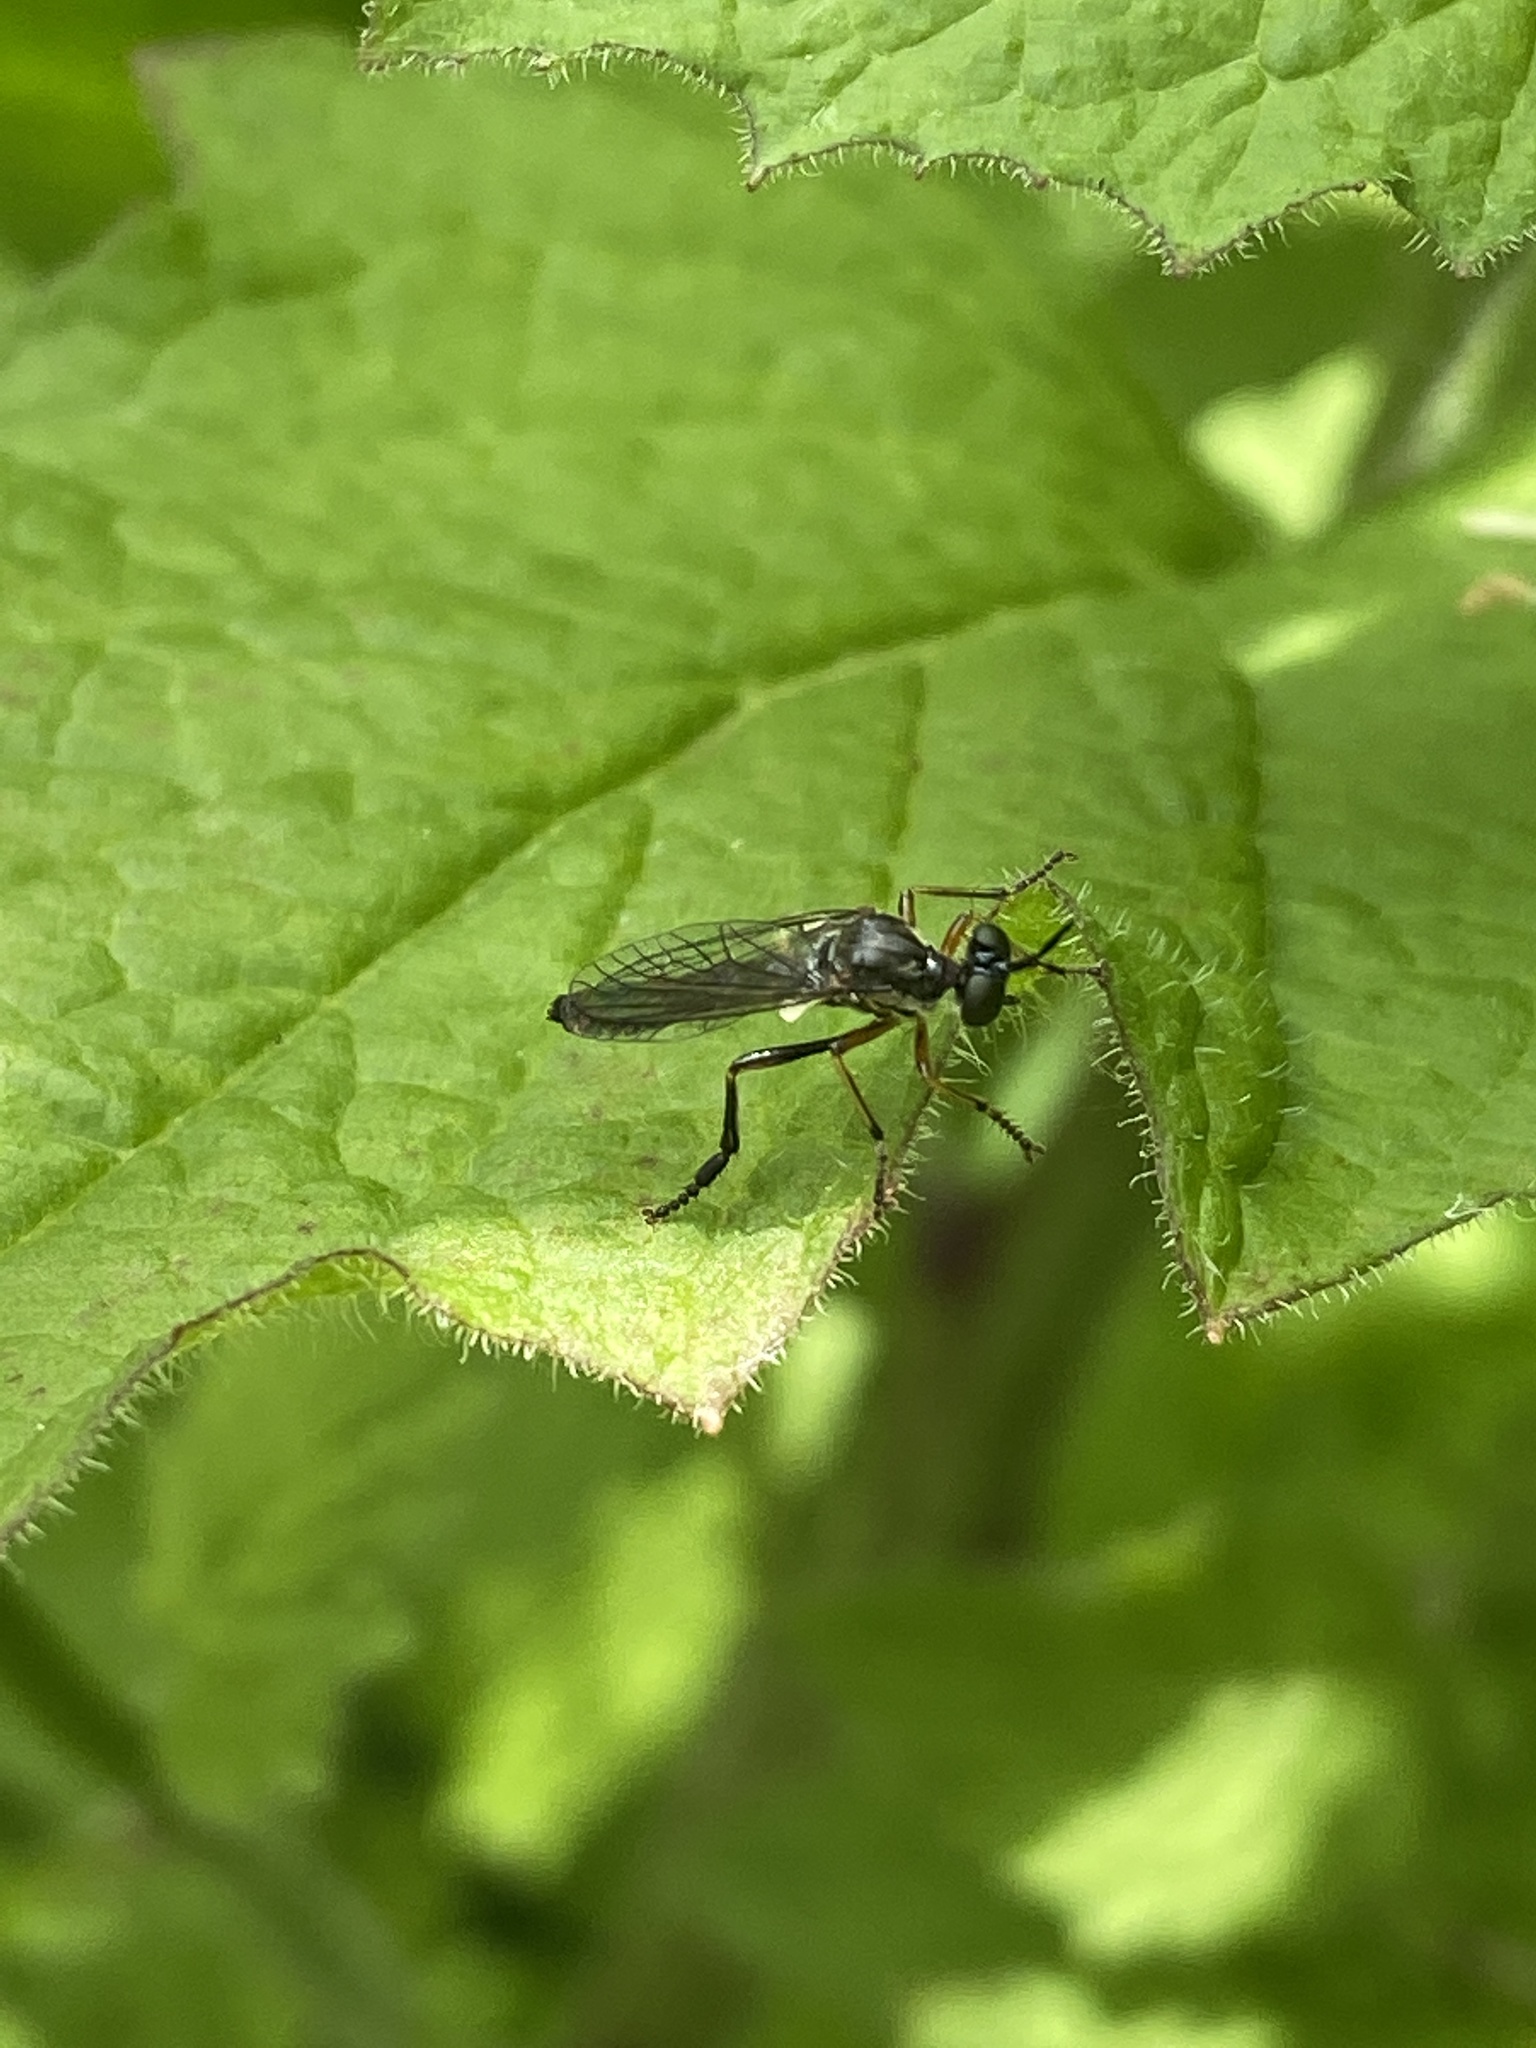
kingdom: Animalia
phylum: Arthropoda
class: Insecta
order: Diptera
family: Asilidae
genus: Dioctria
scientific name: Dioctria hyalipennis
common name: Stripe-legged robberfly
